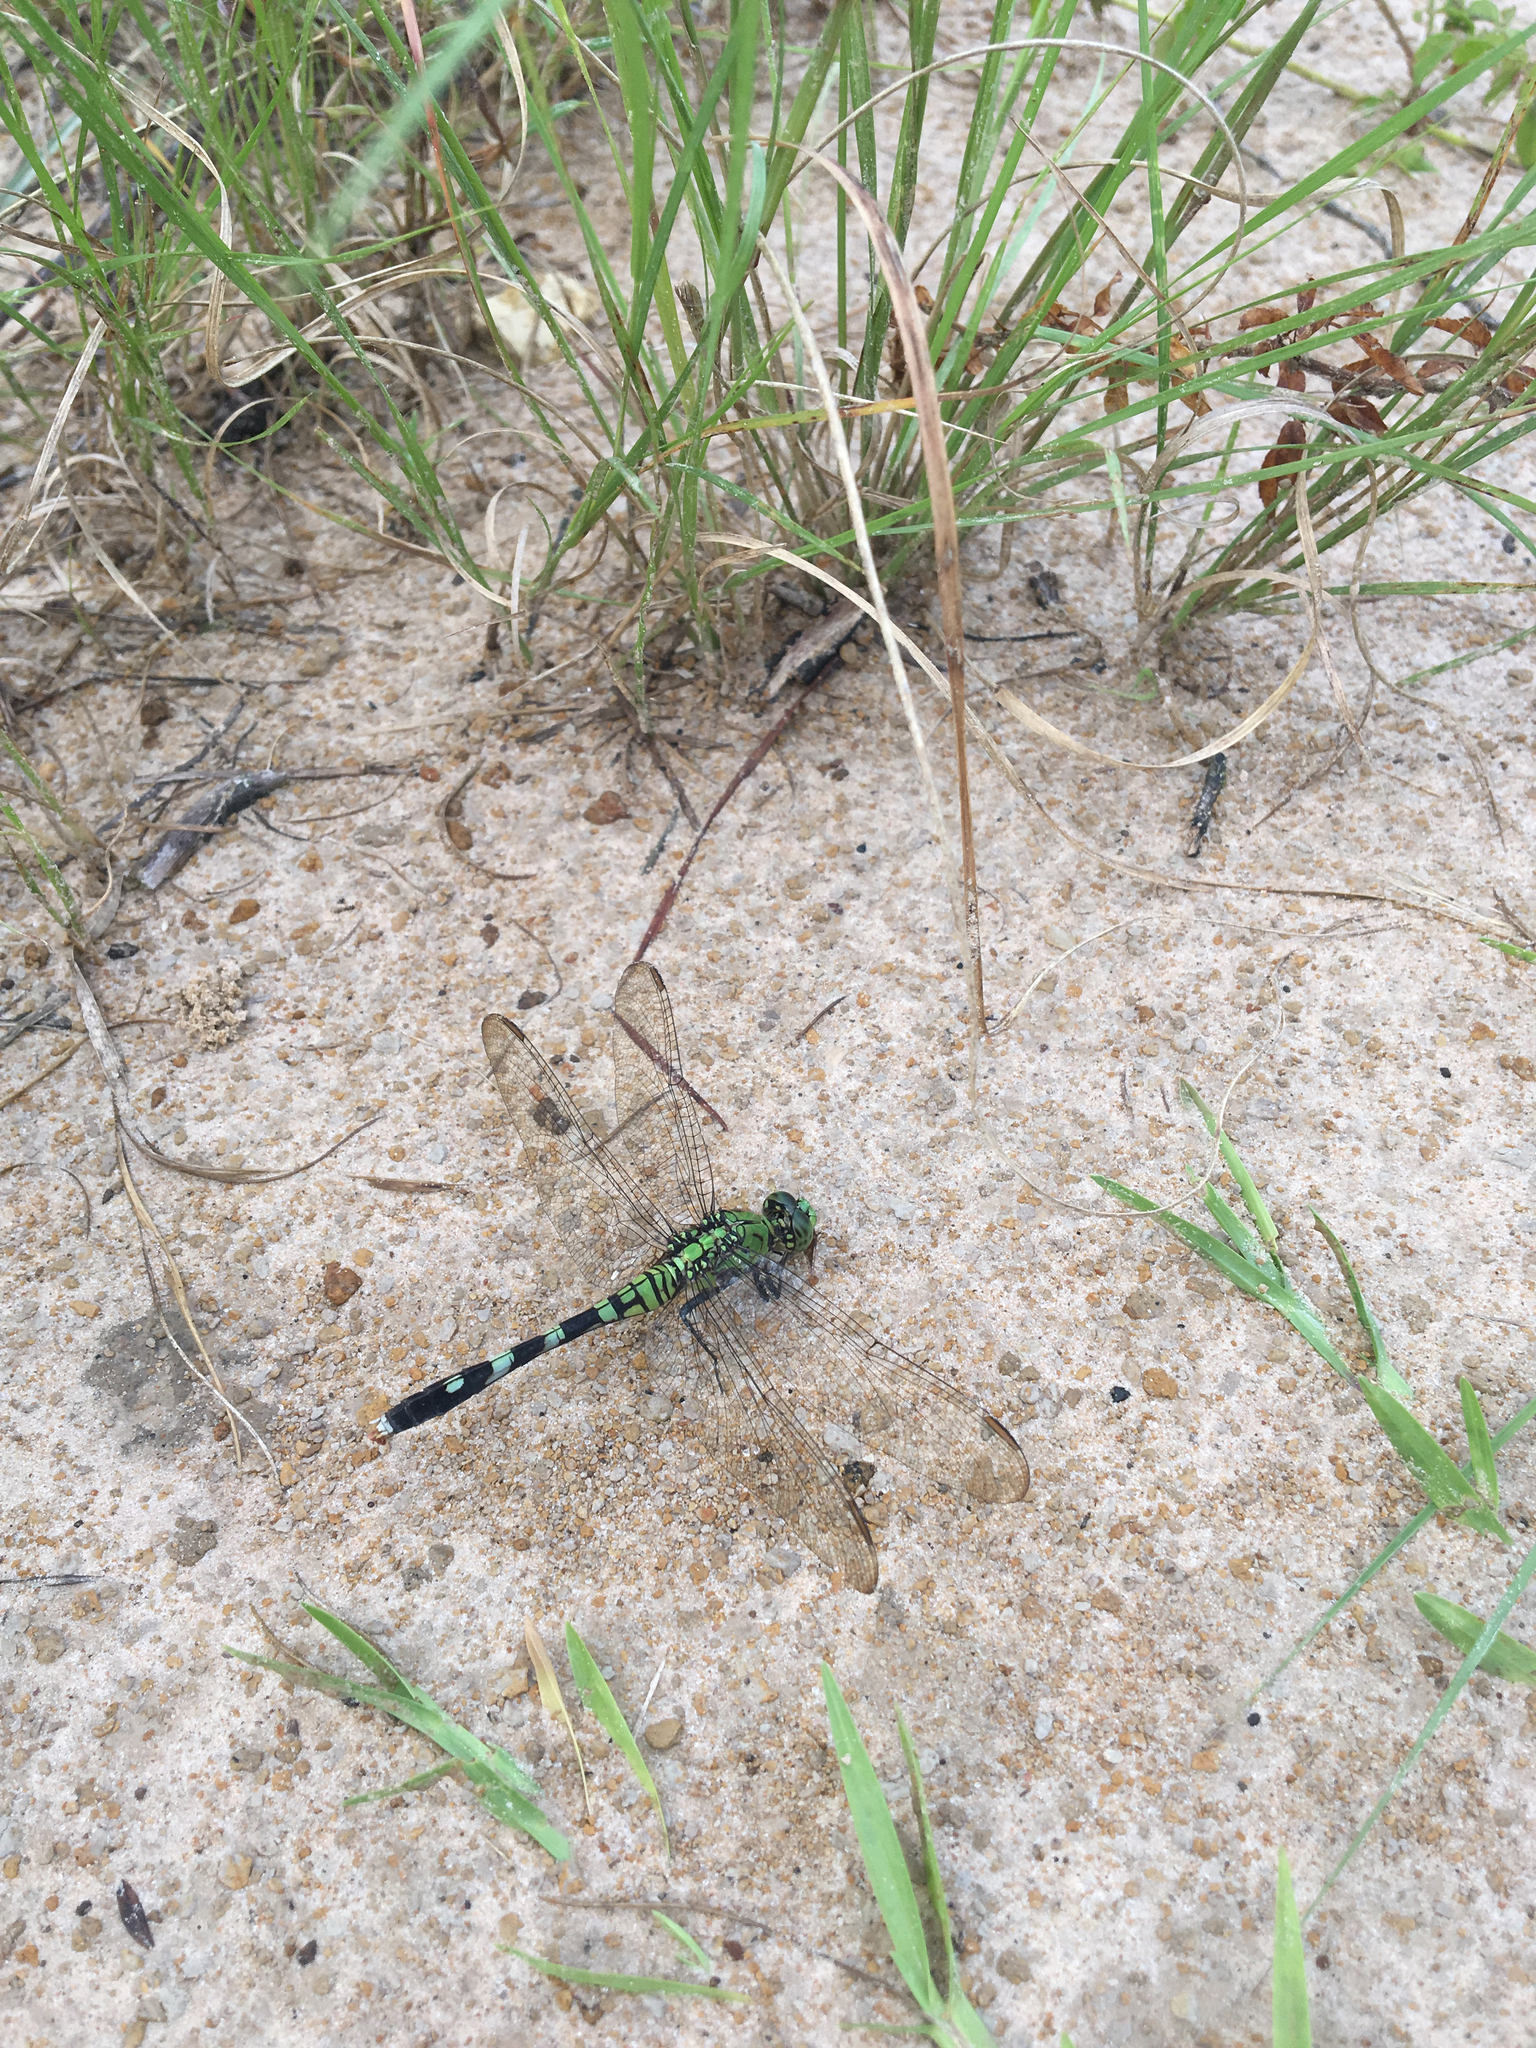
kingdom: Animalia
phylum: Arthropoda
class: Insecta
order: Odonata
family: Libellulidae
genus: Erythemis
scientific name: Erythemis simplicicollis
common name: Eastern pondhawk
